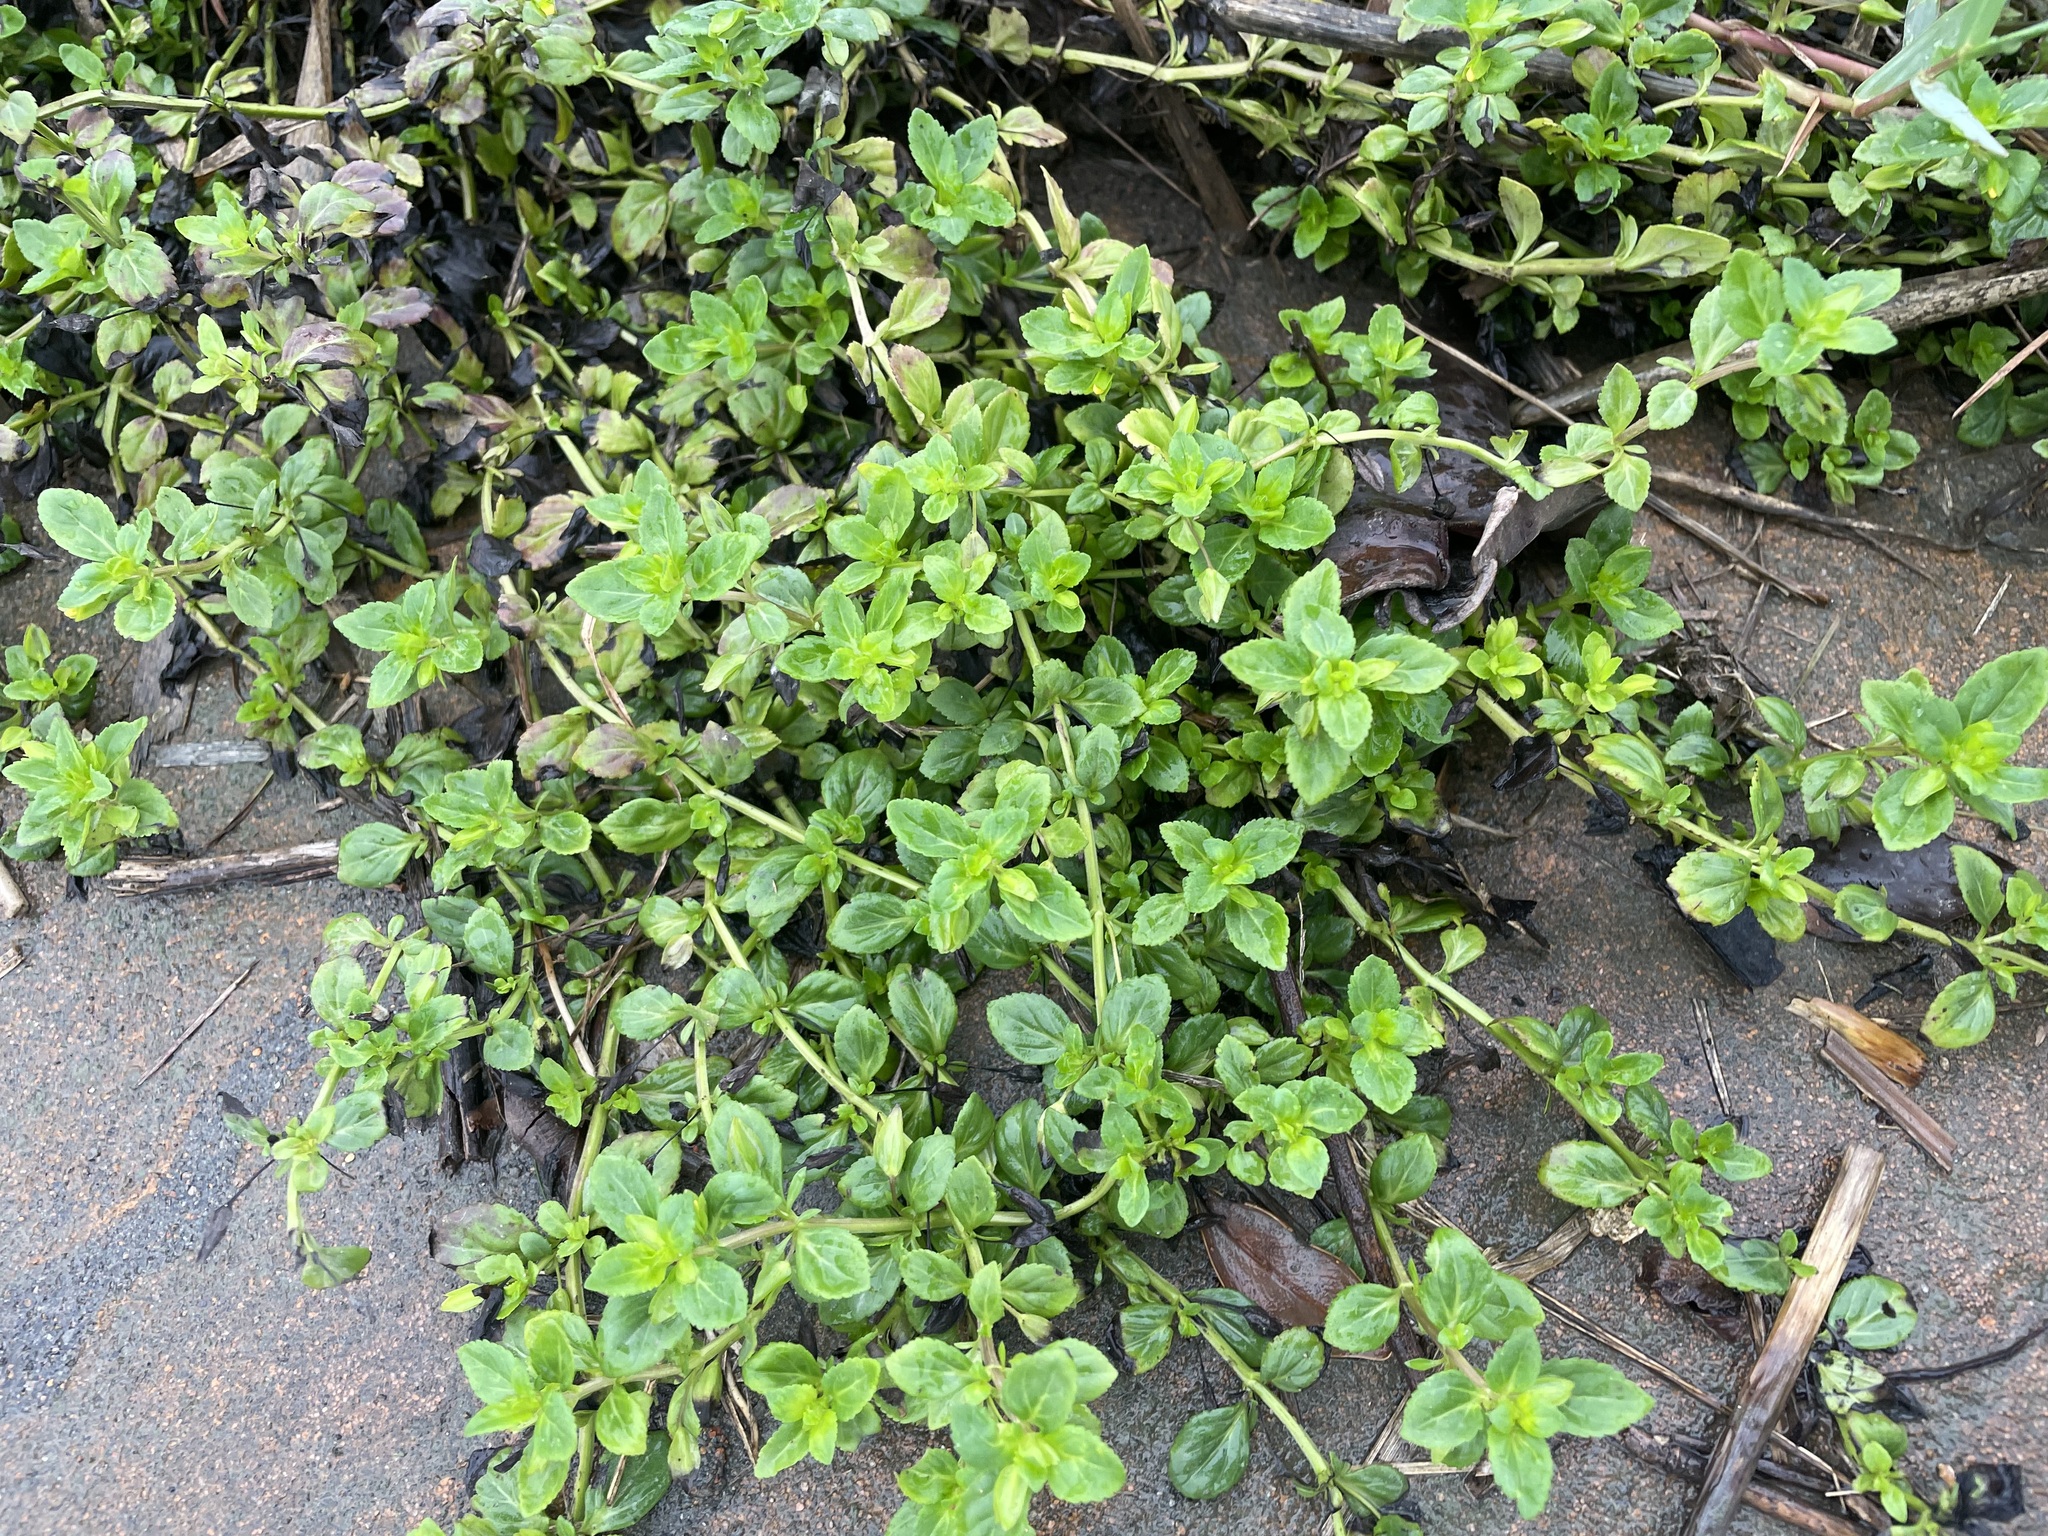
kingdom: Plantae
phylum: Tracheophyta
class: Magnoliopsida
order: Lamiales
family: Plantaginaceae
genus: Mecardonia
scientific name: Mecardonia procumbens
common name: Baby jump-up
